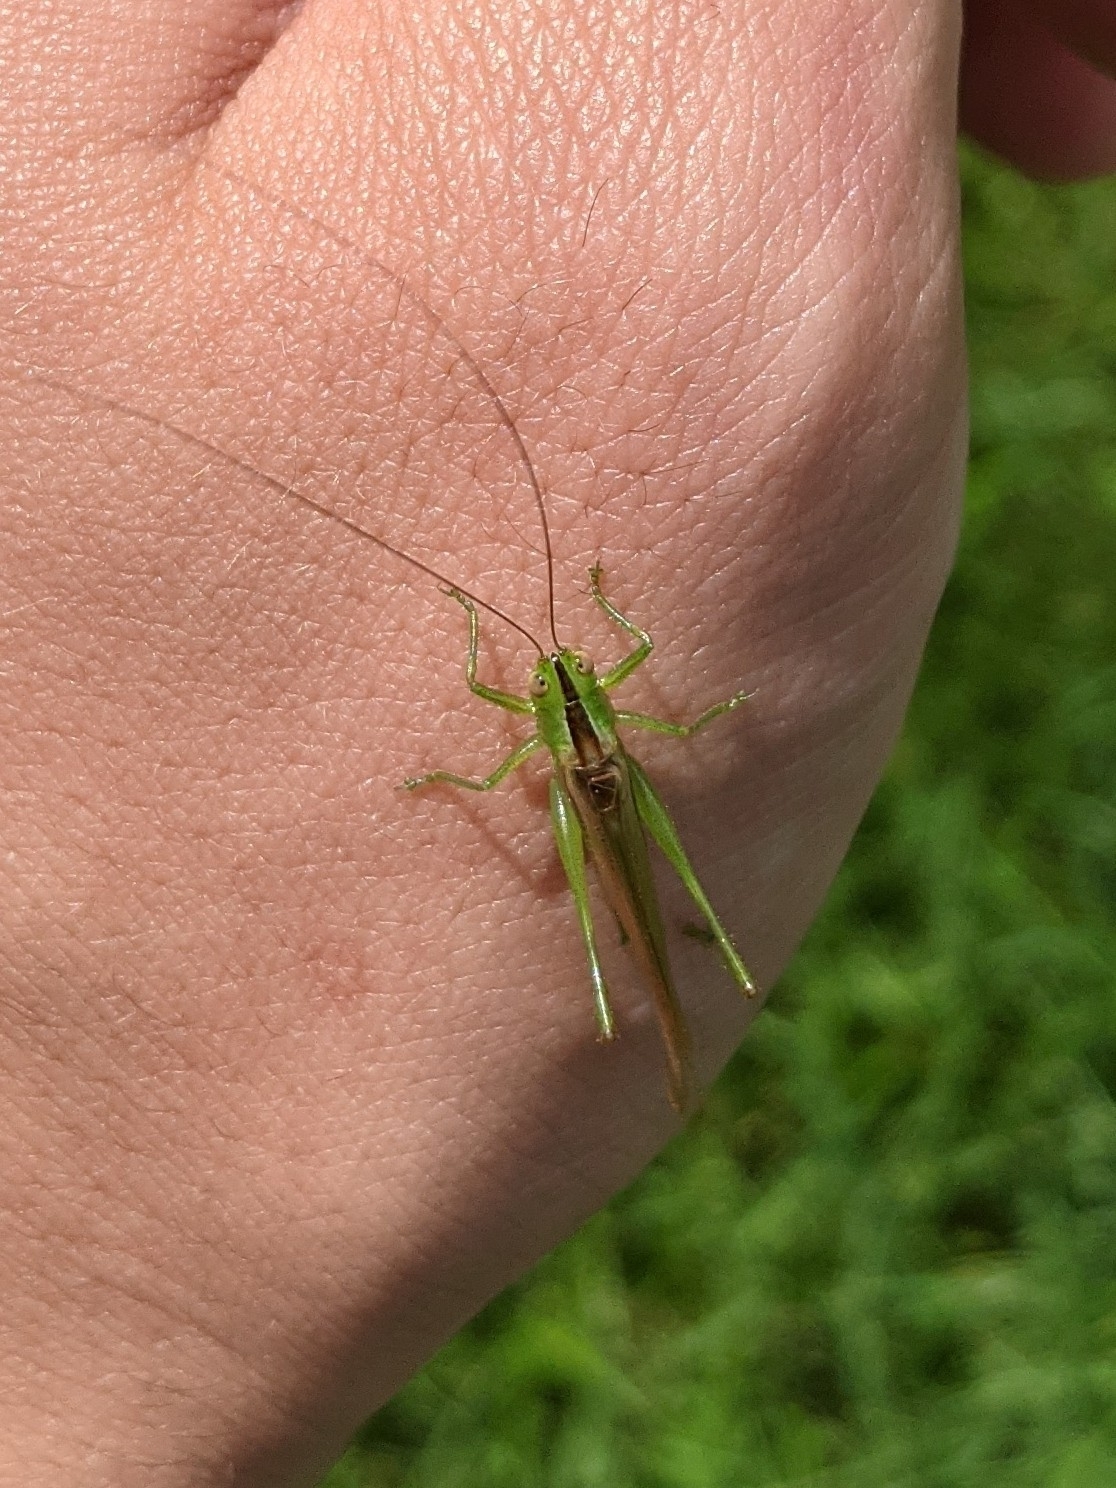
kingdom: Animalia
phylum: Arthropoda
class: Insecta
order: Orthoptera
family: Tettigoniidae
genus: Conocephalus
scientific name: Conocephalus fasciatus
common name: Slender meadow katydid
